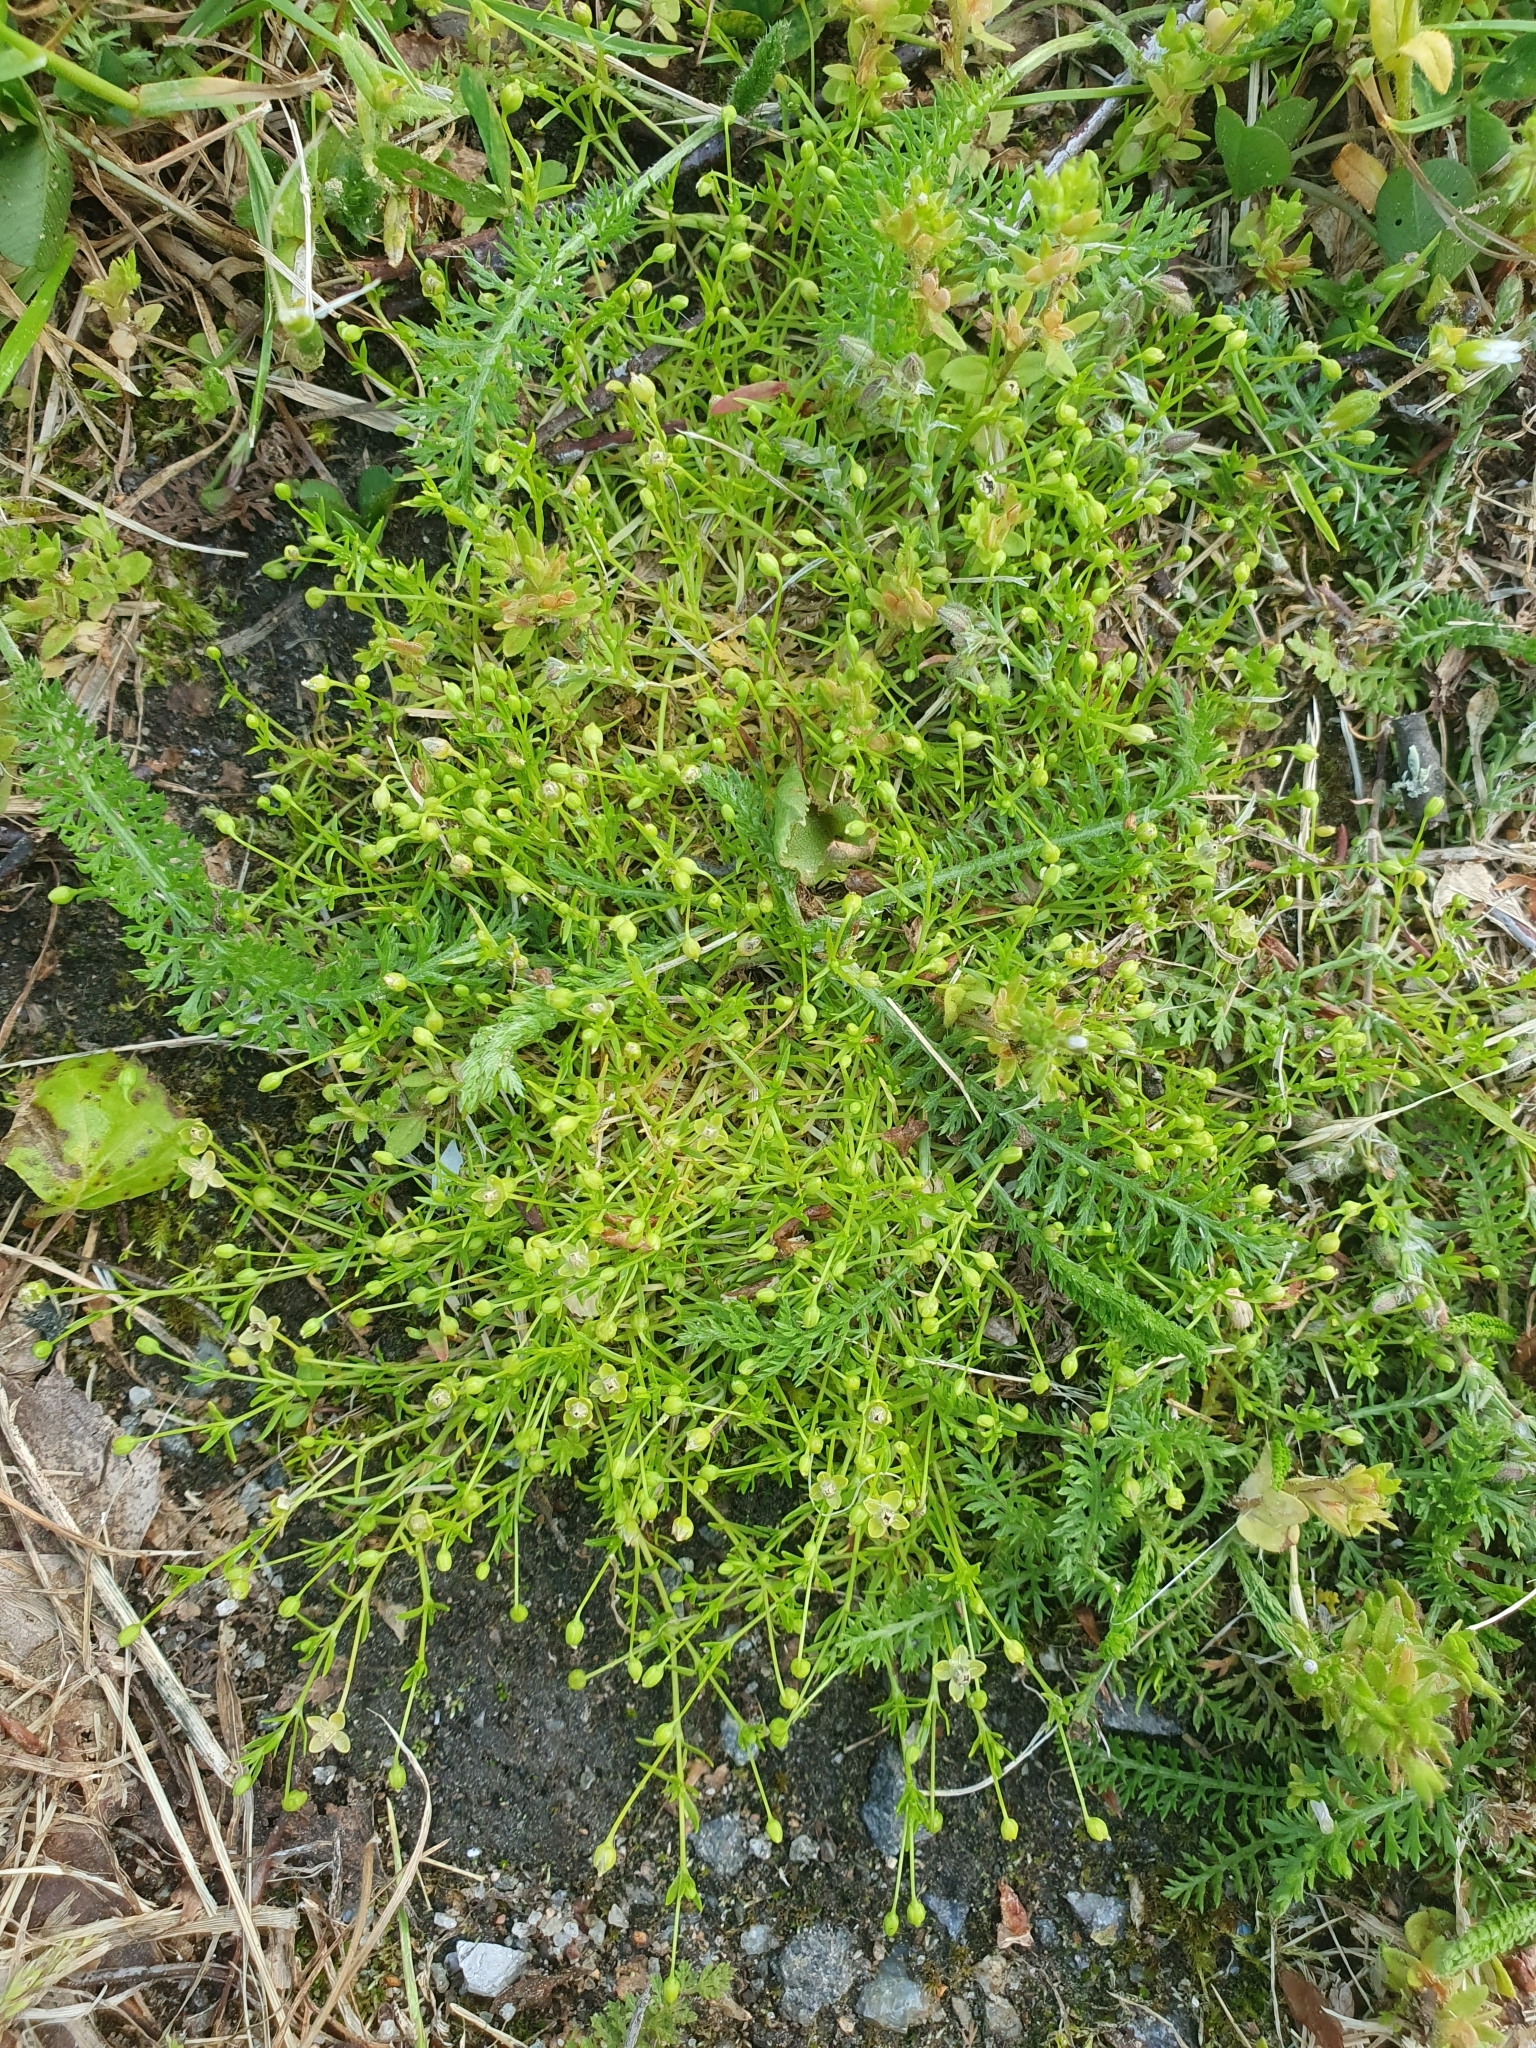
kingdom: Plantae
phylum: Tracheophyta
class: Magnoliopsida
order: Caryophyllales
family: Caryophyllaceae
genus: Sagina
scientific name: Sagina procumbens
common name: Procumbent pearlwort
